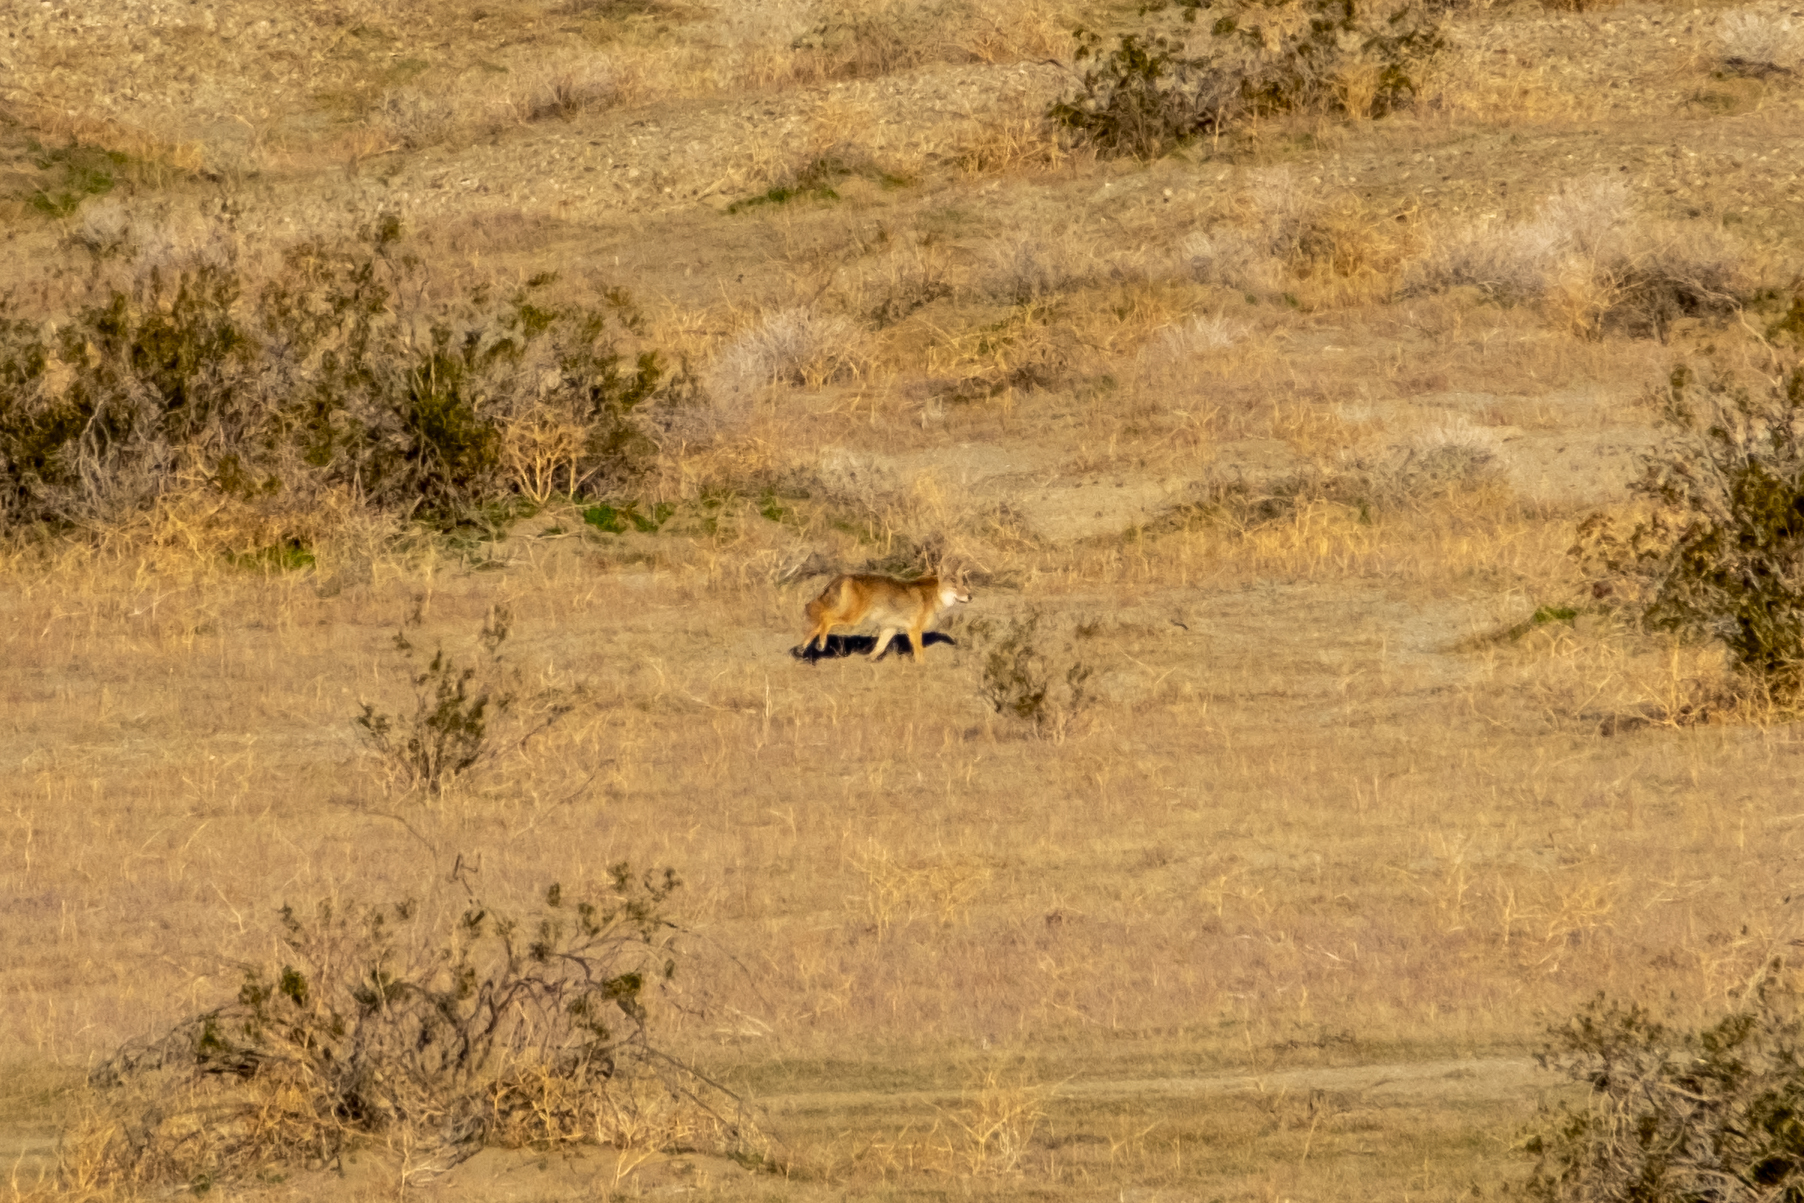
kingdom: Animalia
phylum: Chordata
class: Mammalia
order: Carnivora
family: Canidae
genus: Canis
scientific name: Canis latrans
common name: Coyote
